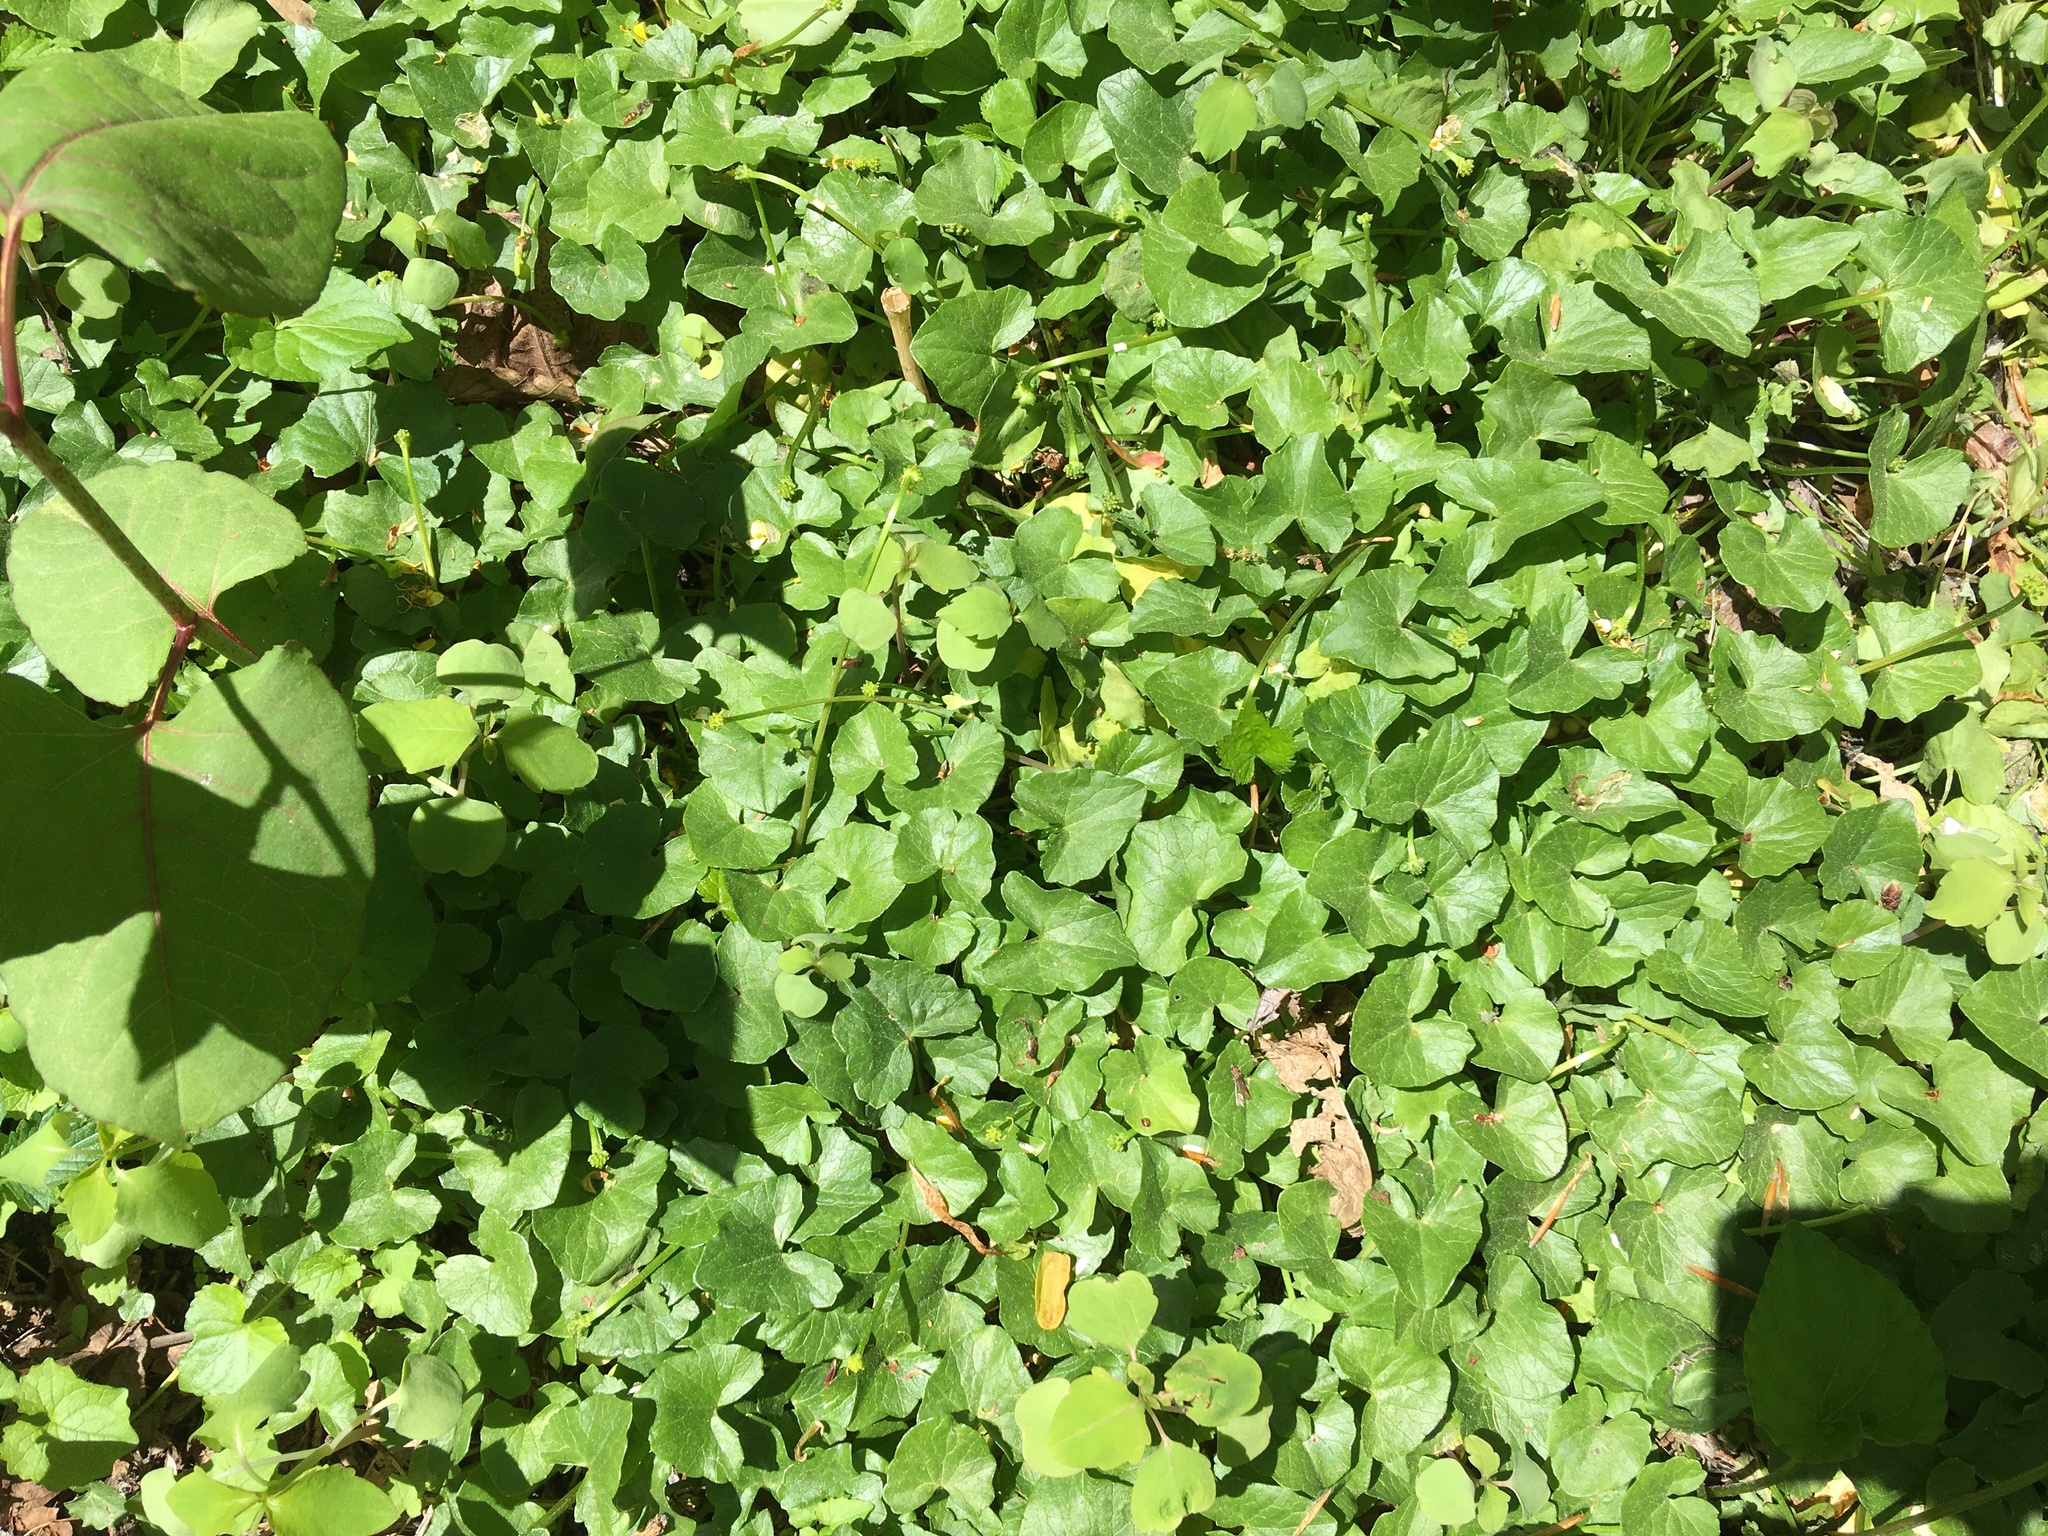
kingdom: Plantae
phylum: Tracheophyta
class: Magnoliopsida
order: Ranunculales
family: Ranunculaceae
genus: Ficaria
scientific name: Ficaria verna
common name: Lesser celandine
